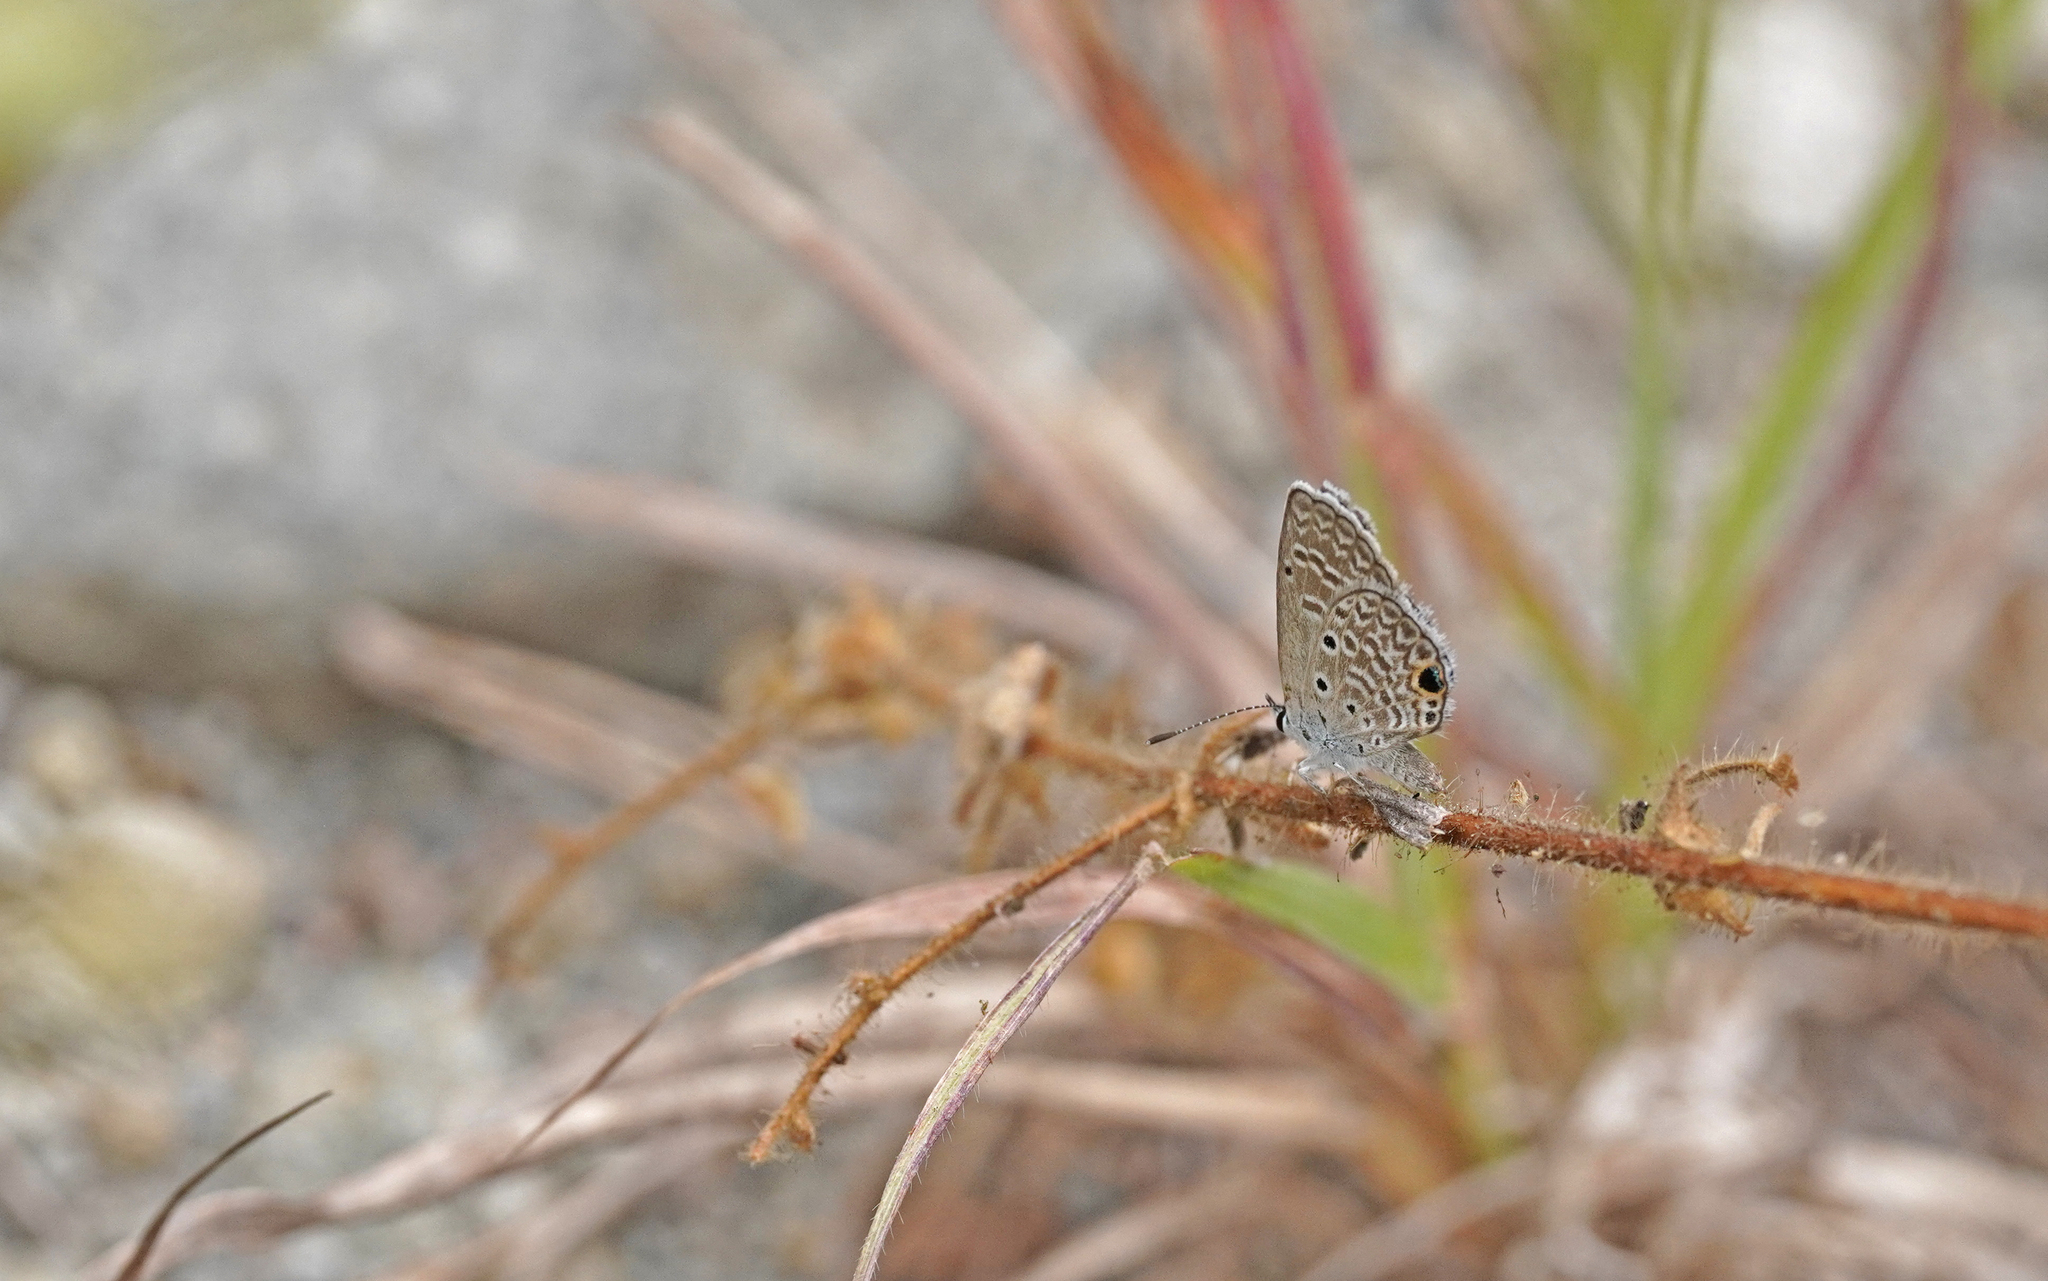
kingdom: Animalia
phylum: Arthropoda
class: Insecta
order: Lepidoptera
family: Lycaenidae
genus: Hemiargus
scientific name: Hemiargus hanno
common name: Common blue
